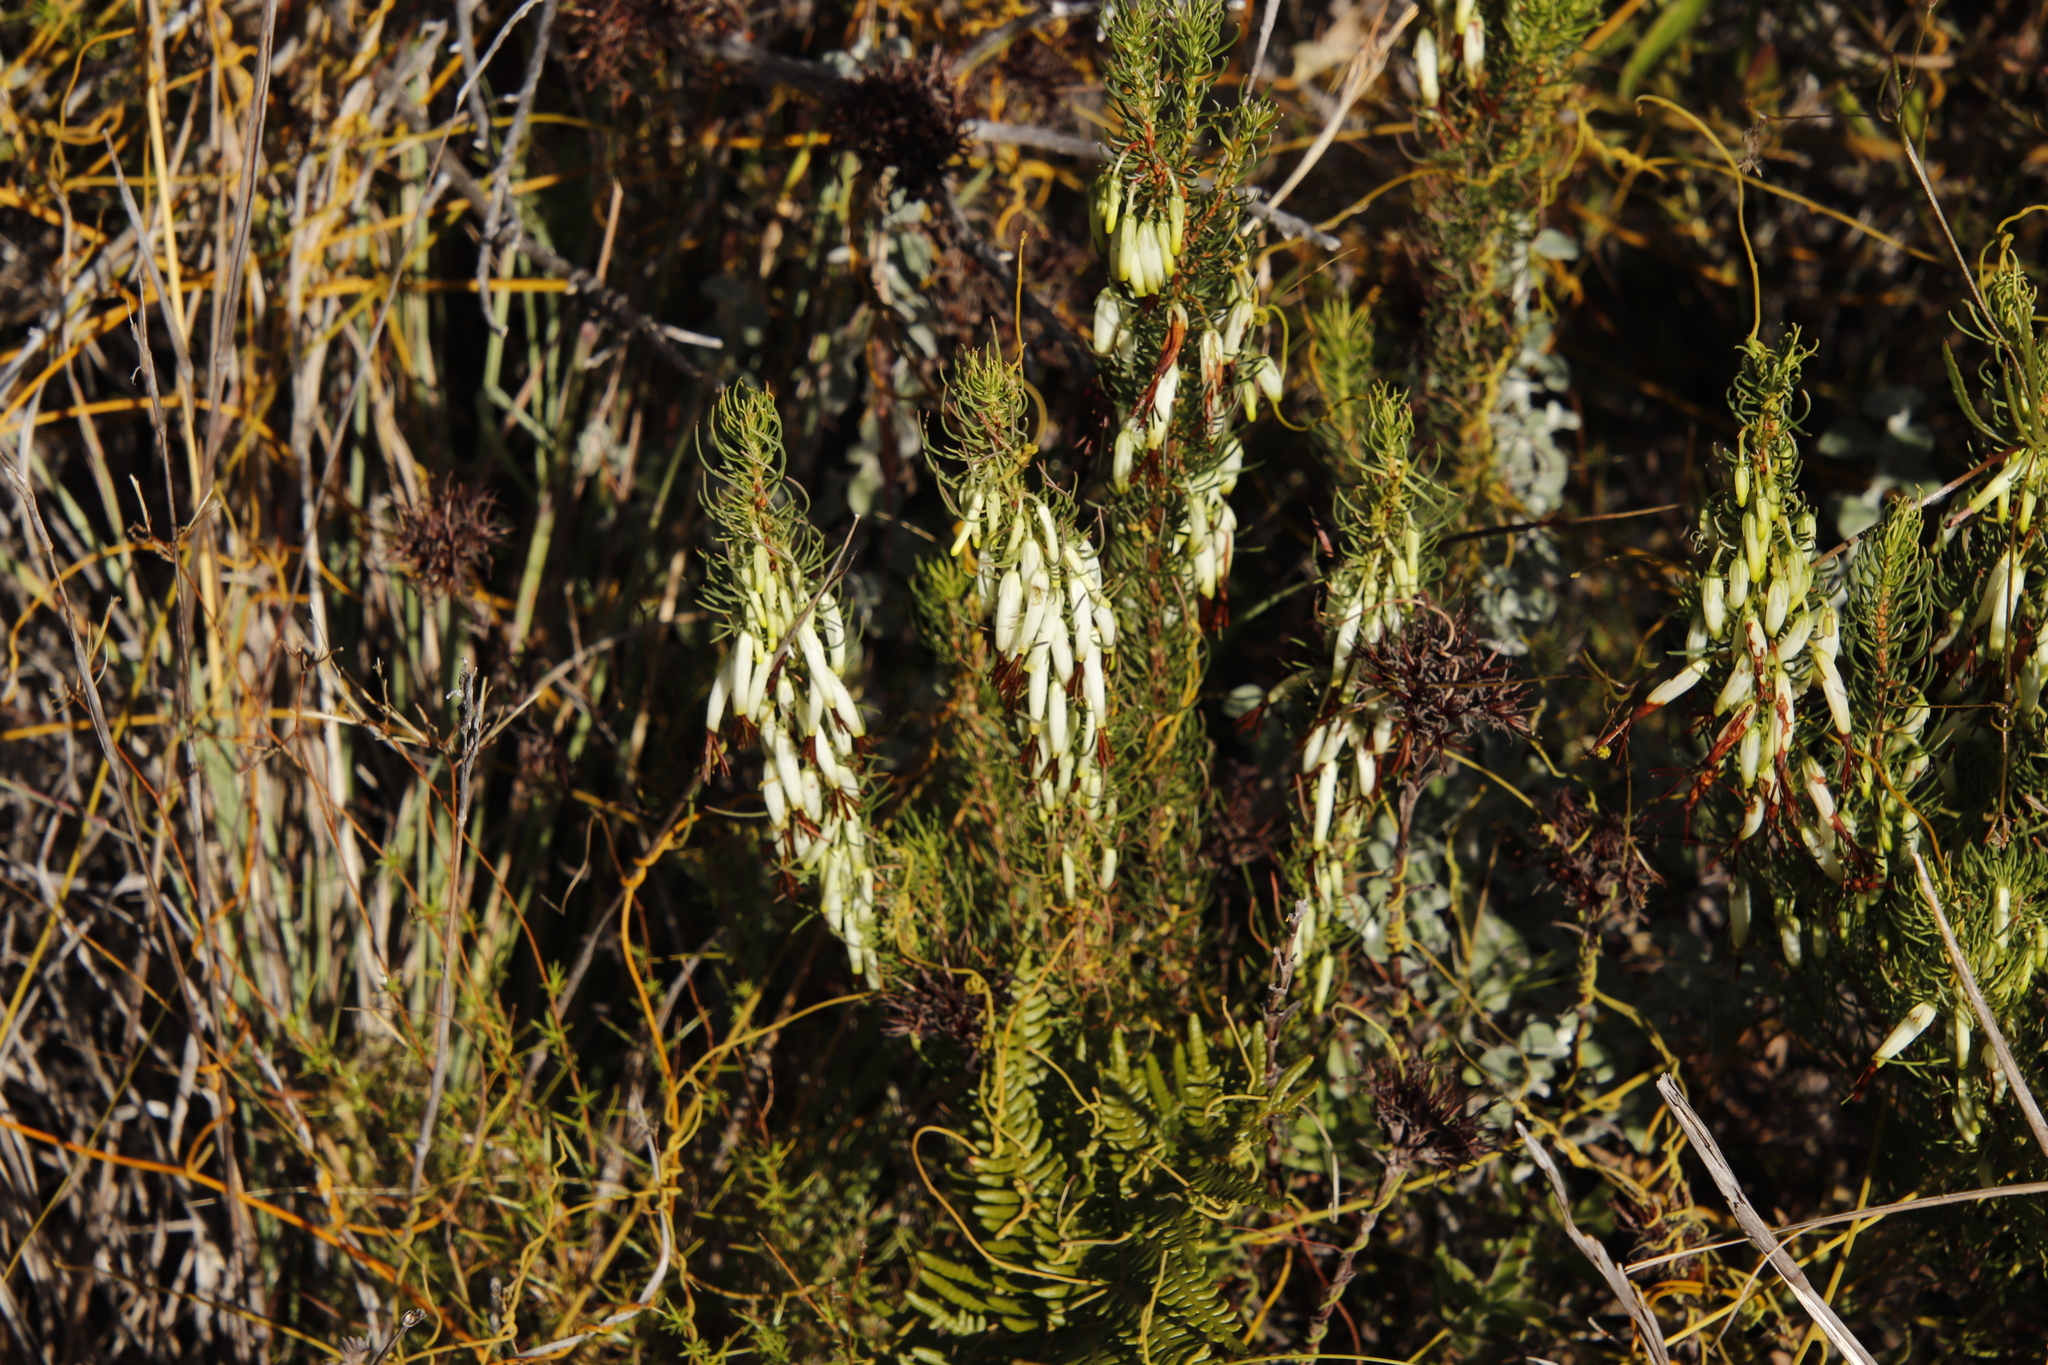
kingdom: Plantae
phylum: Tracheophyta
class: Magnoliopsida
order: Ericales
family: Ericaceae
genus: Erica
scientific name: Erica plukenetii
